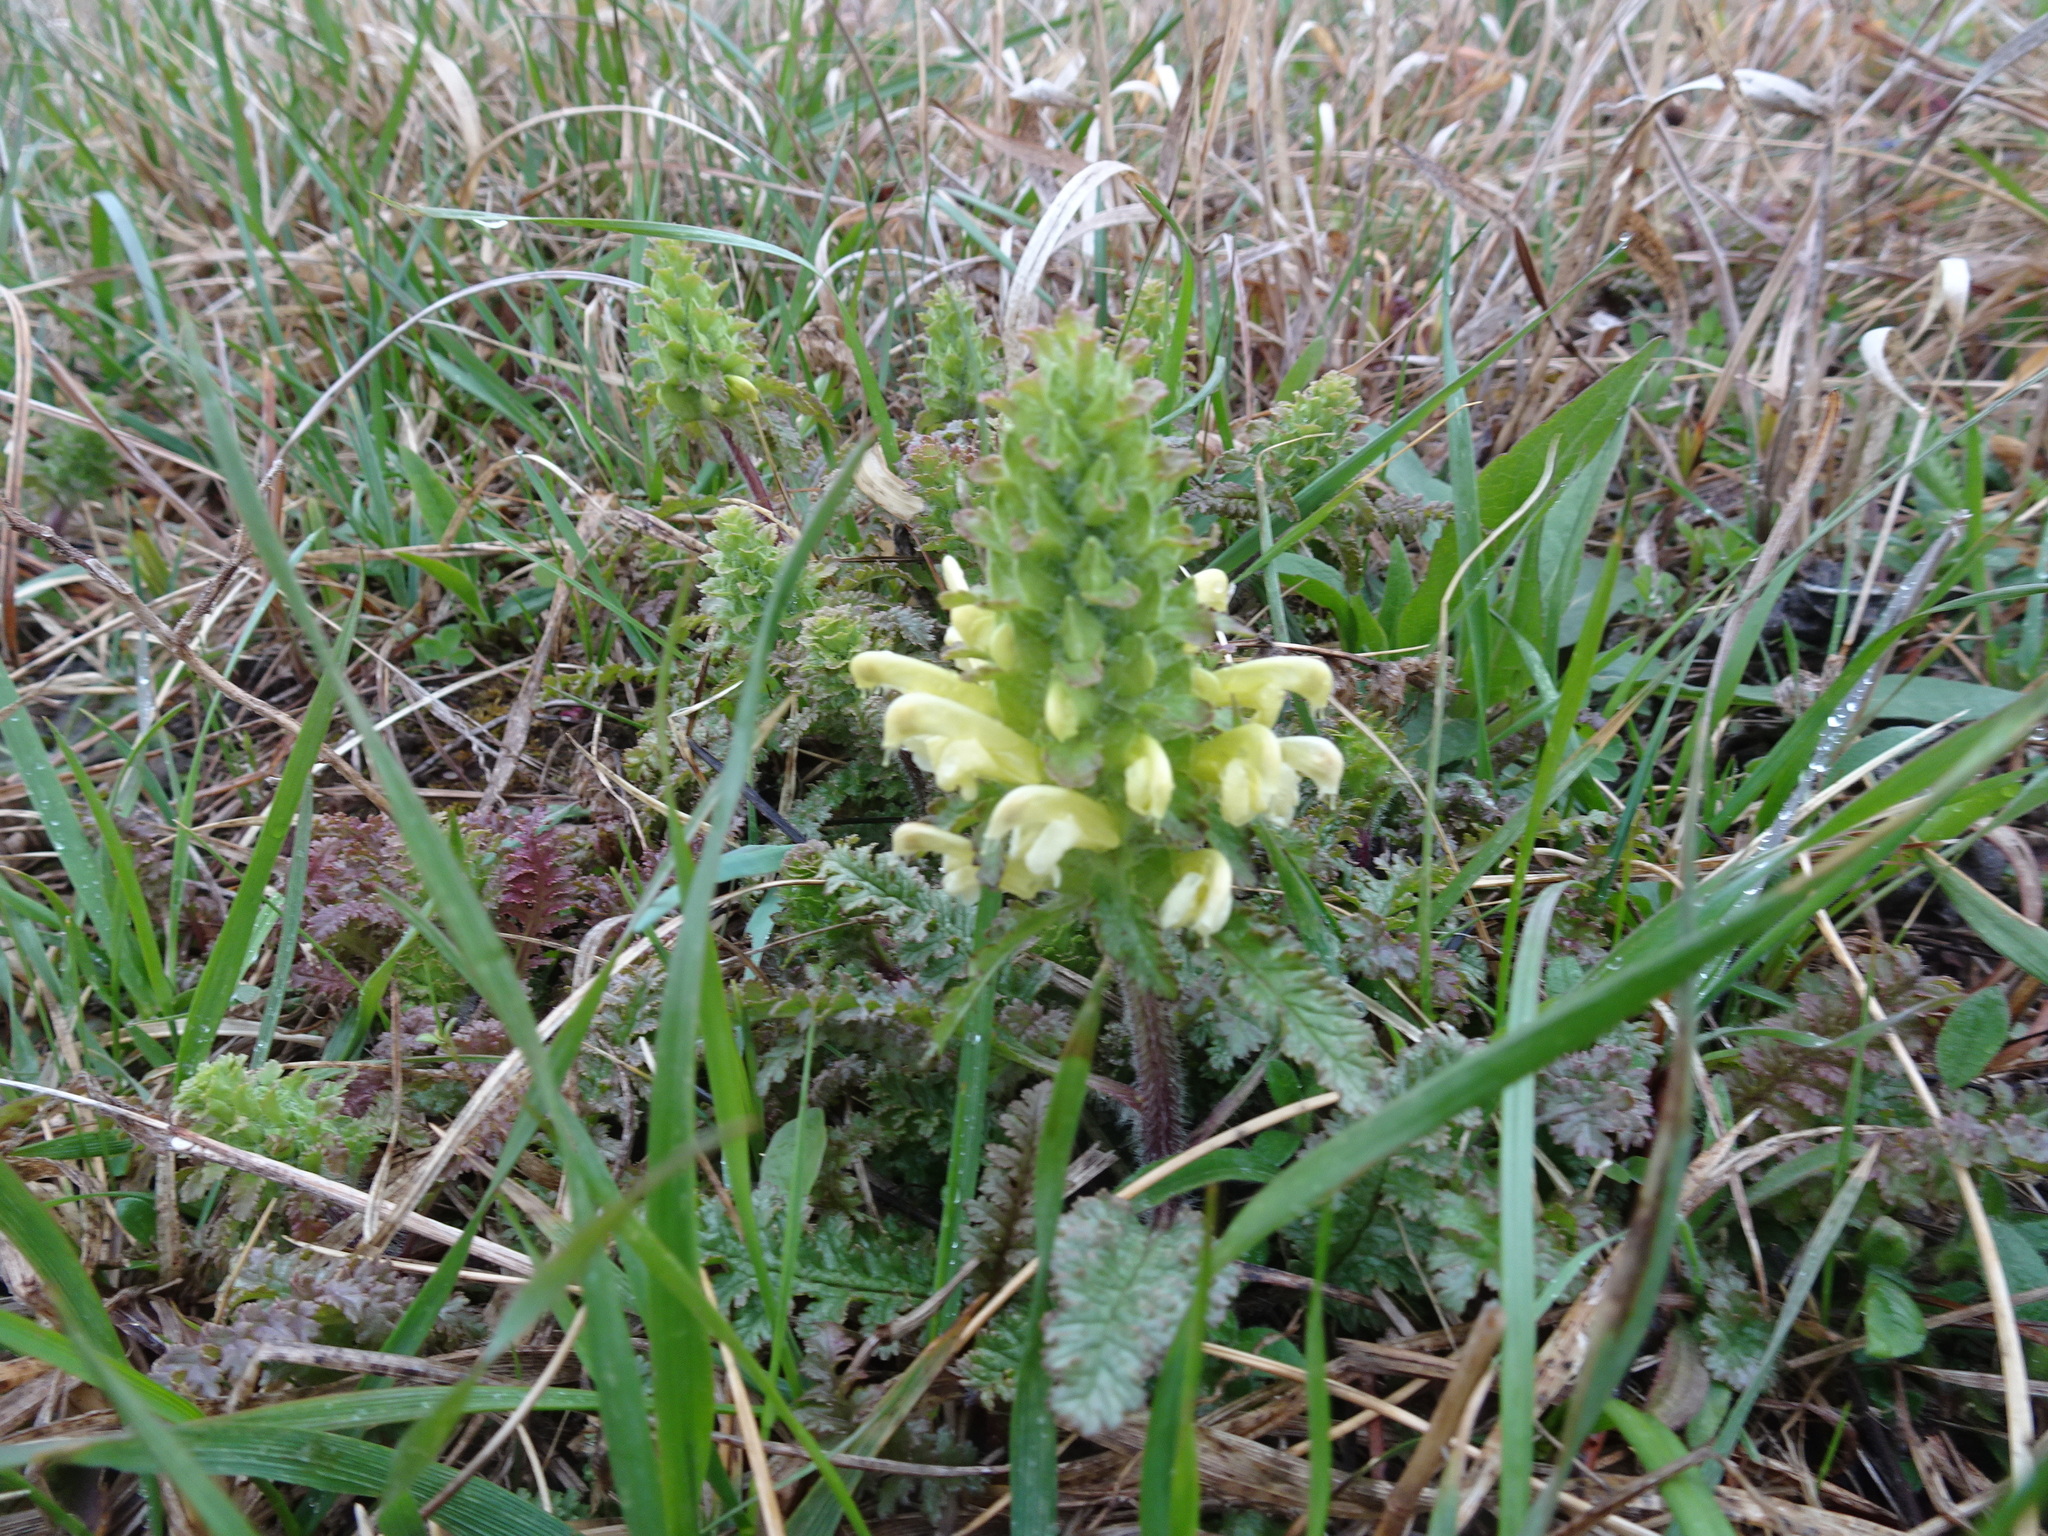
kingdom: Plantae
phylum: Tracheophyta
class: Magnoliopsida
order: Lamiales
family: Orobanchaceae
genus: Pedicularis
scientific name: Pedicularis canadensis
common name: Early lousewort
